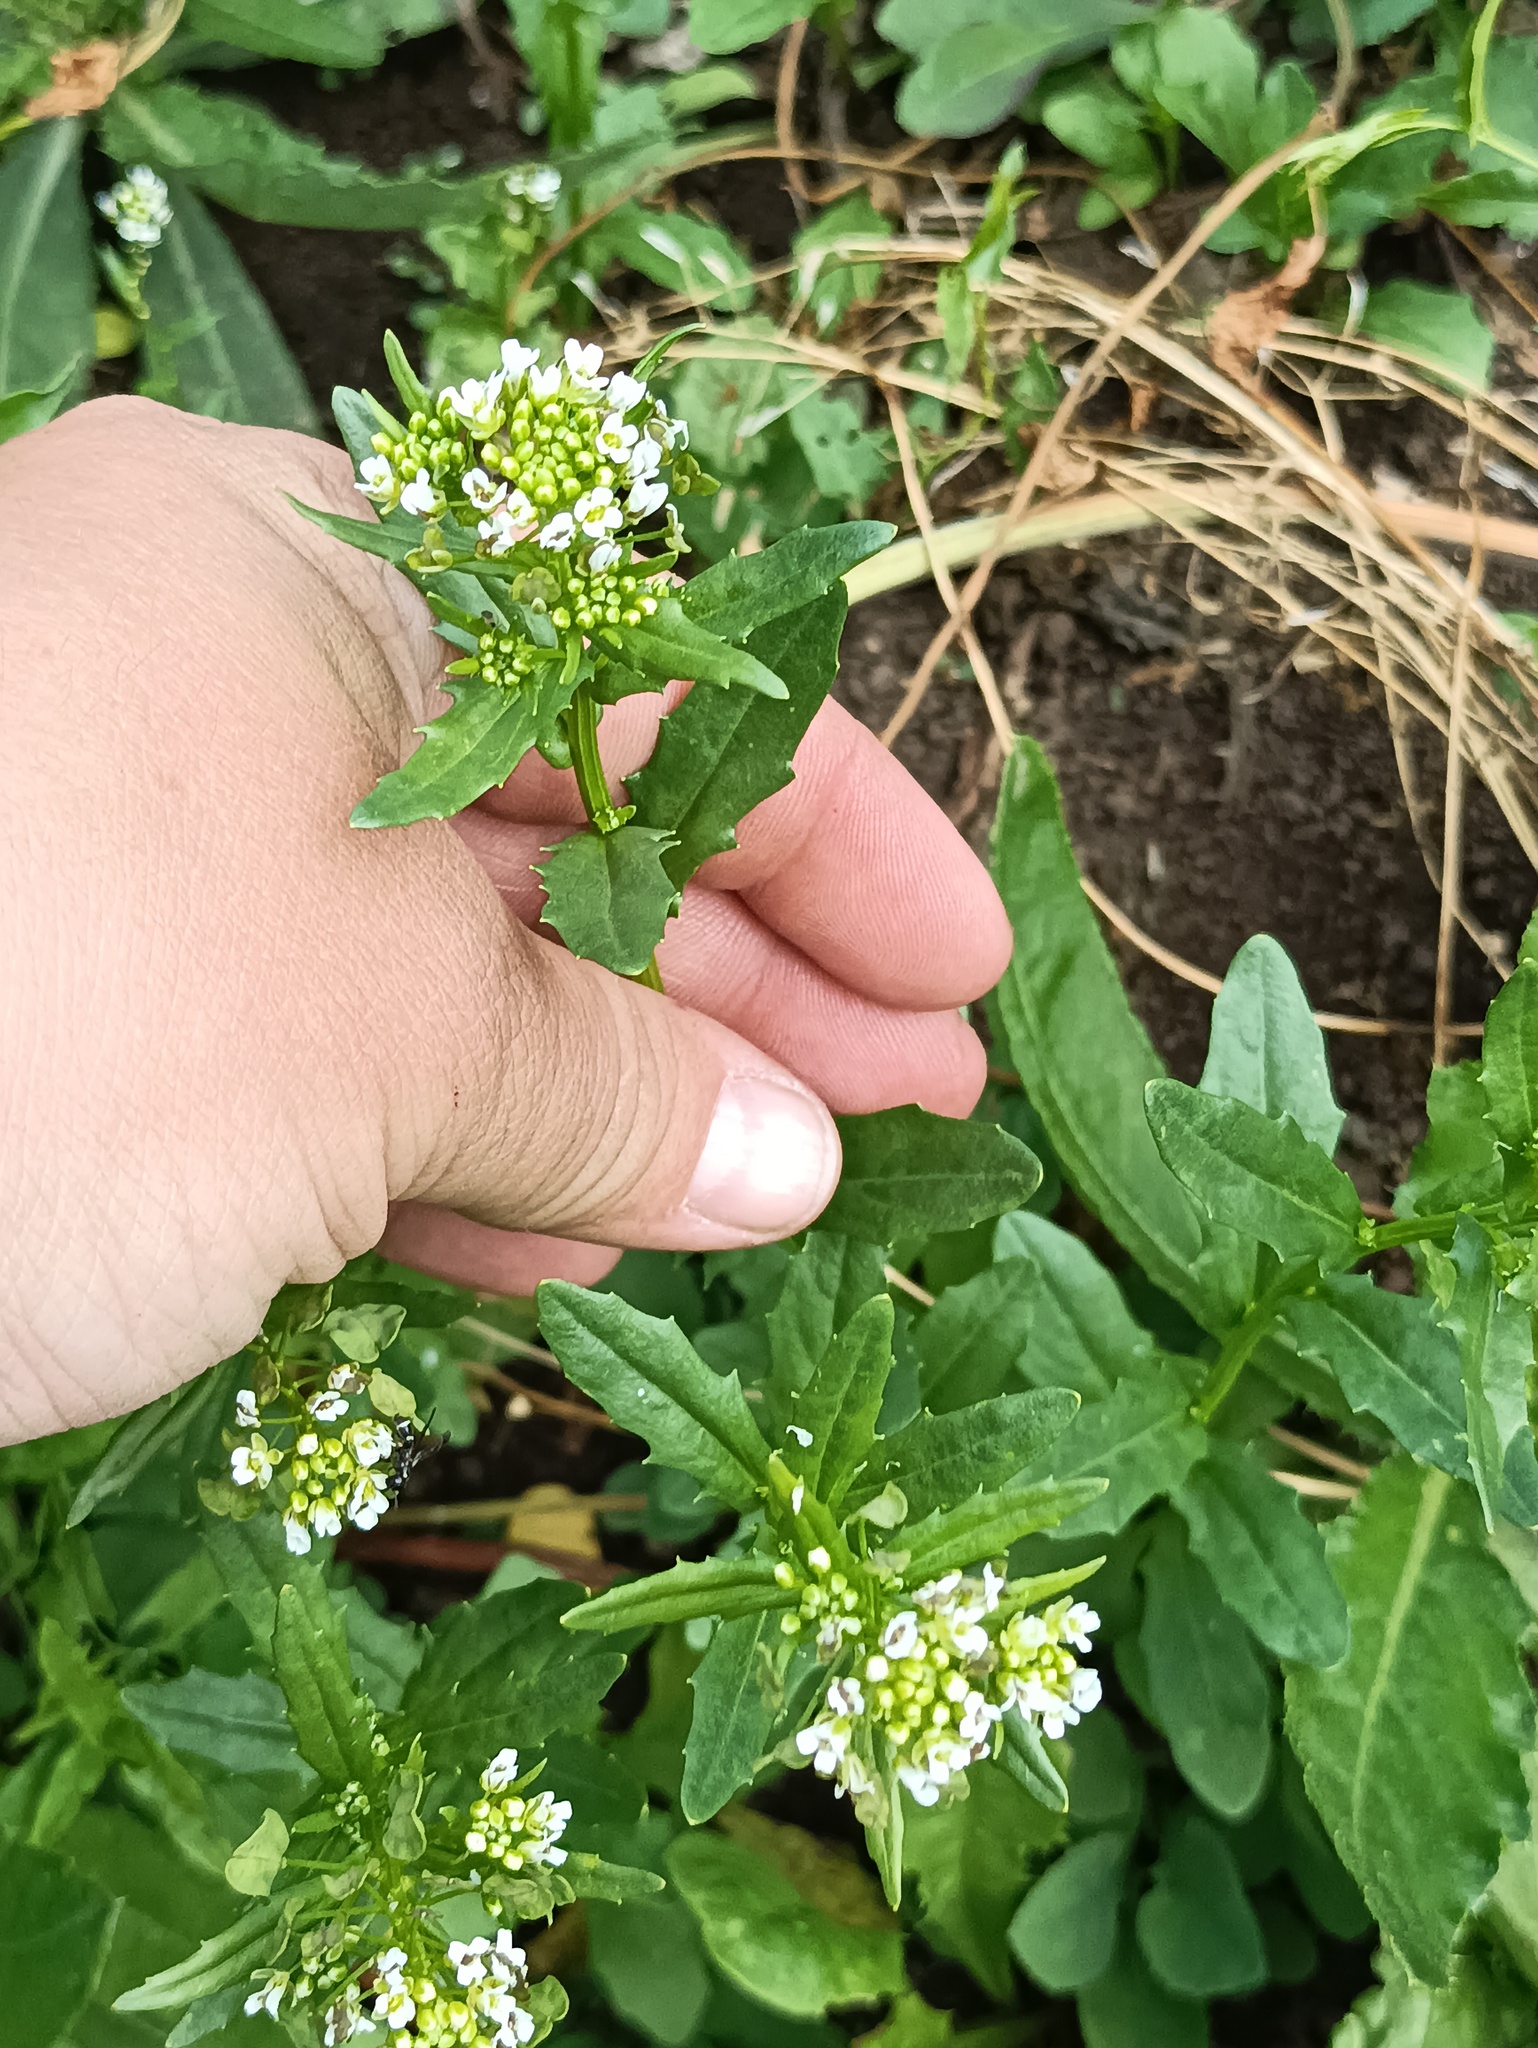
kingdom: Plantae
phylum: Tracheophyta
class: Magnoliopsida
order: Brassicales
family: Brassicaceae
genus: Thlaspi
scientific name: Thlaspi arvense
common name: Field pennycress
